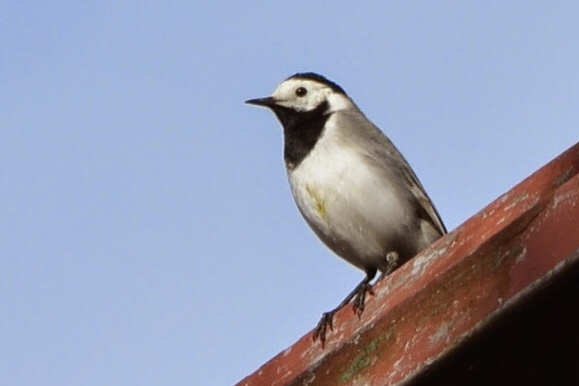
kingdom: Animalia
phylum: Chordata
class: Aves
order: Passeriformes
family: Motacillidae
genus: Motacilla
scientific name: Motacilla alba
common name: White wagtail
